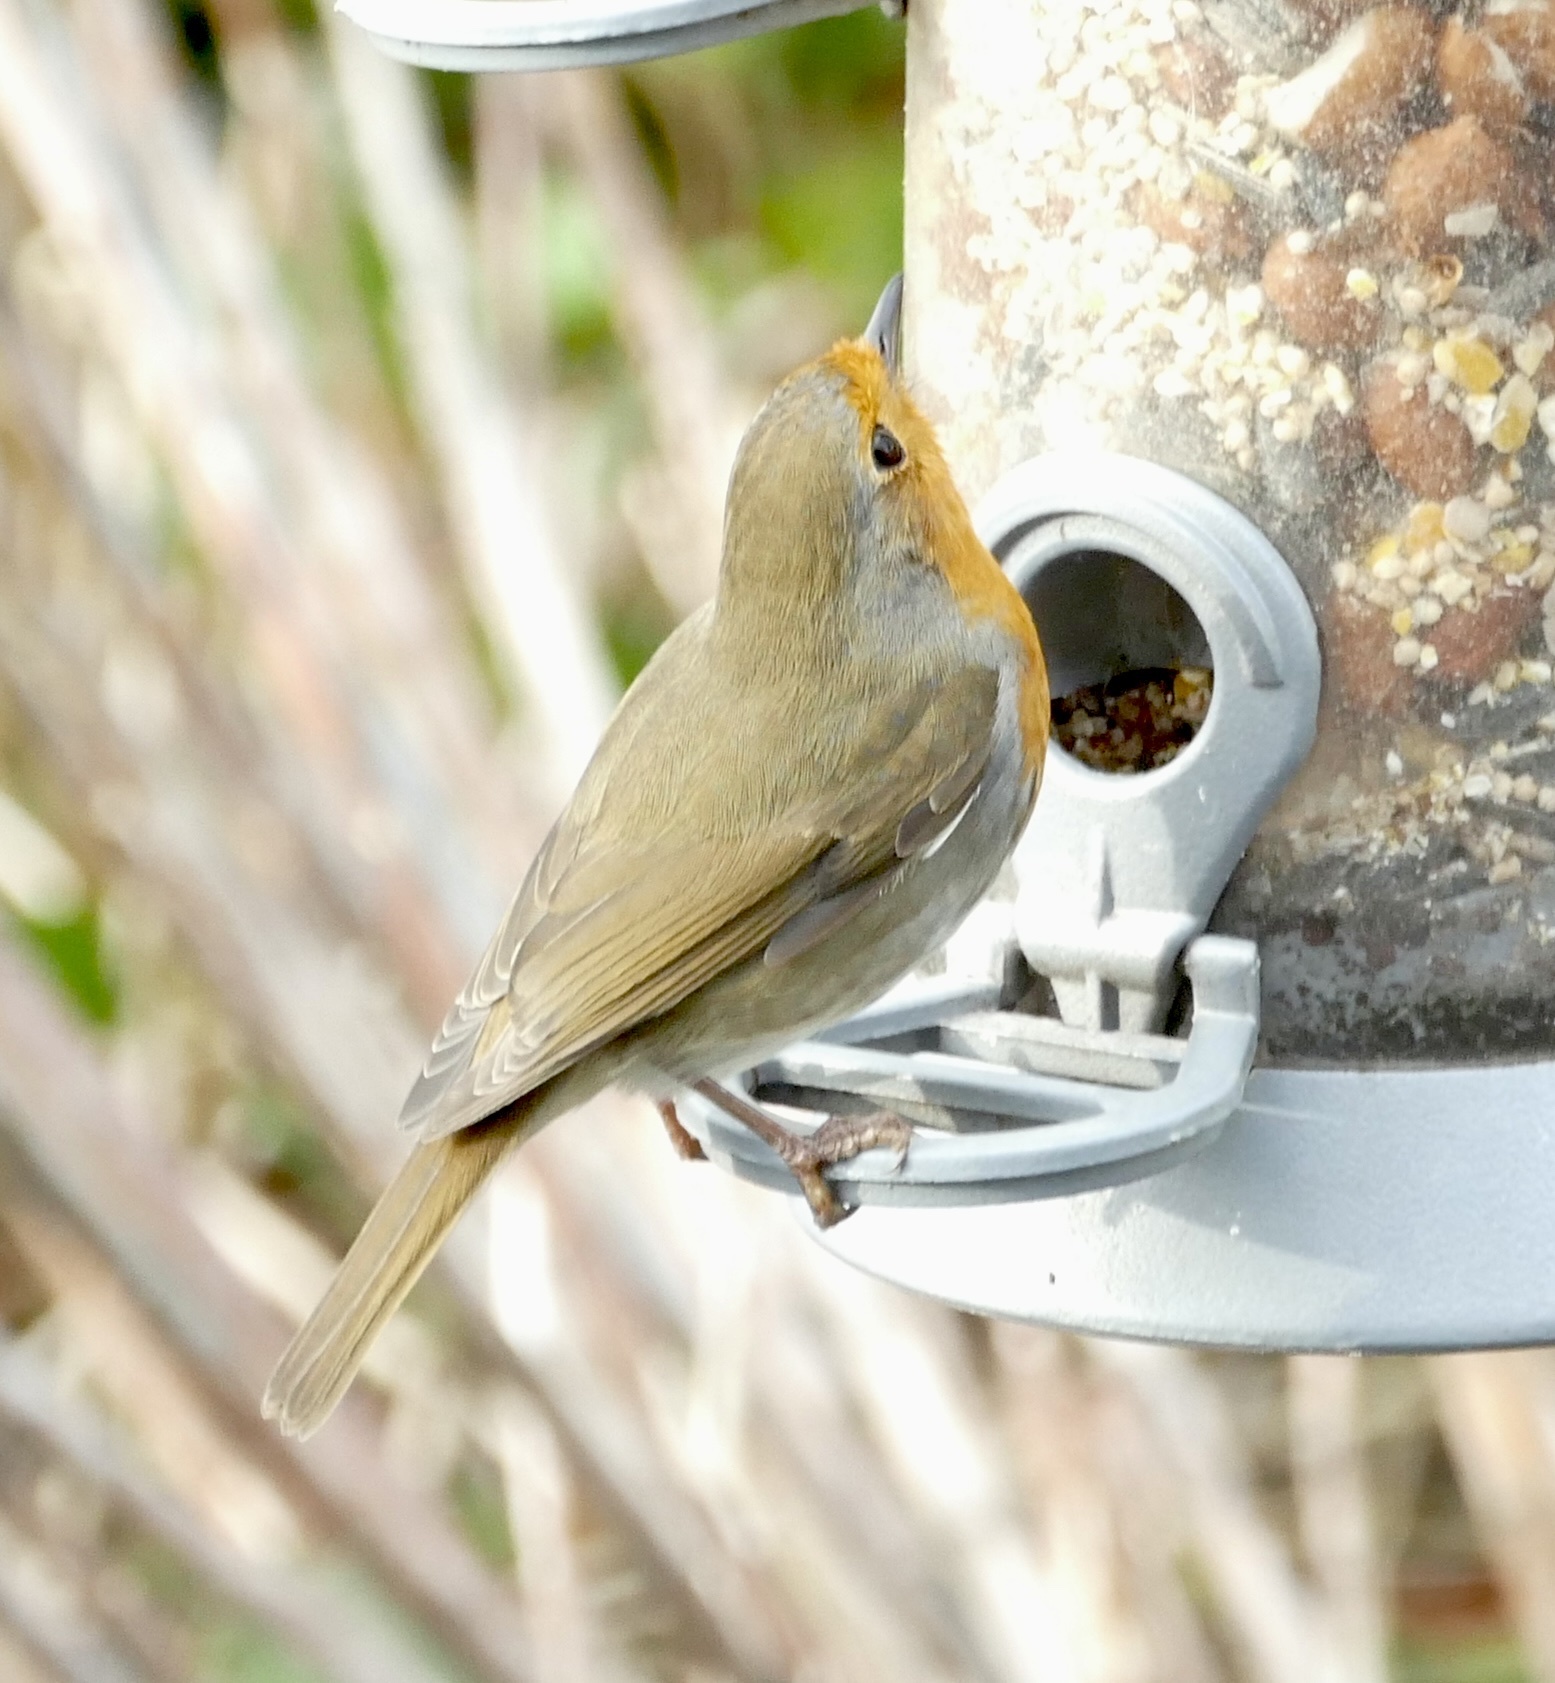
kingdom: Animalia
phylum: Chordata
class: Aves
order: Passeriformes
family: Muscicapidae
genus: Erithacus
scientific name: Erithacus rubecula
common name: European robin
